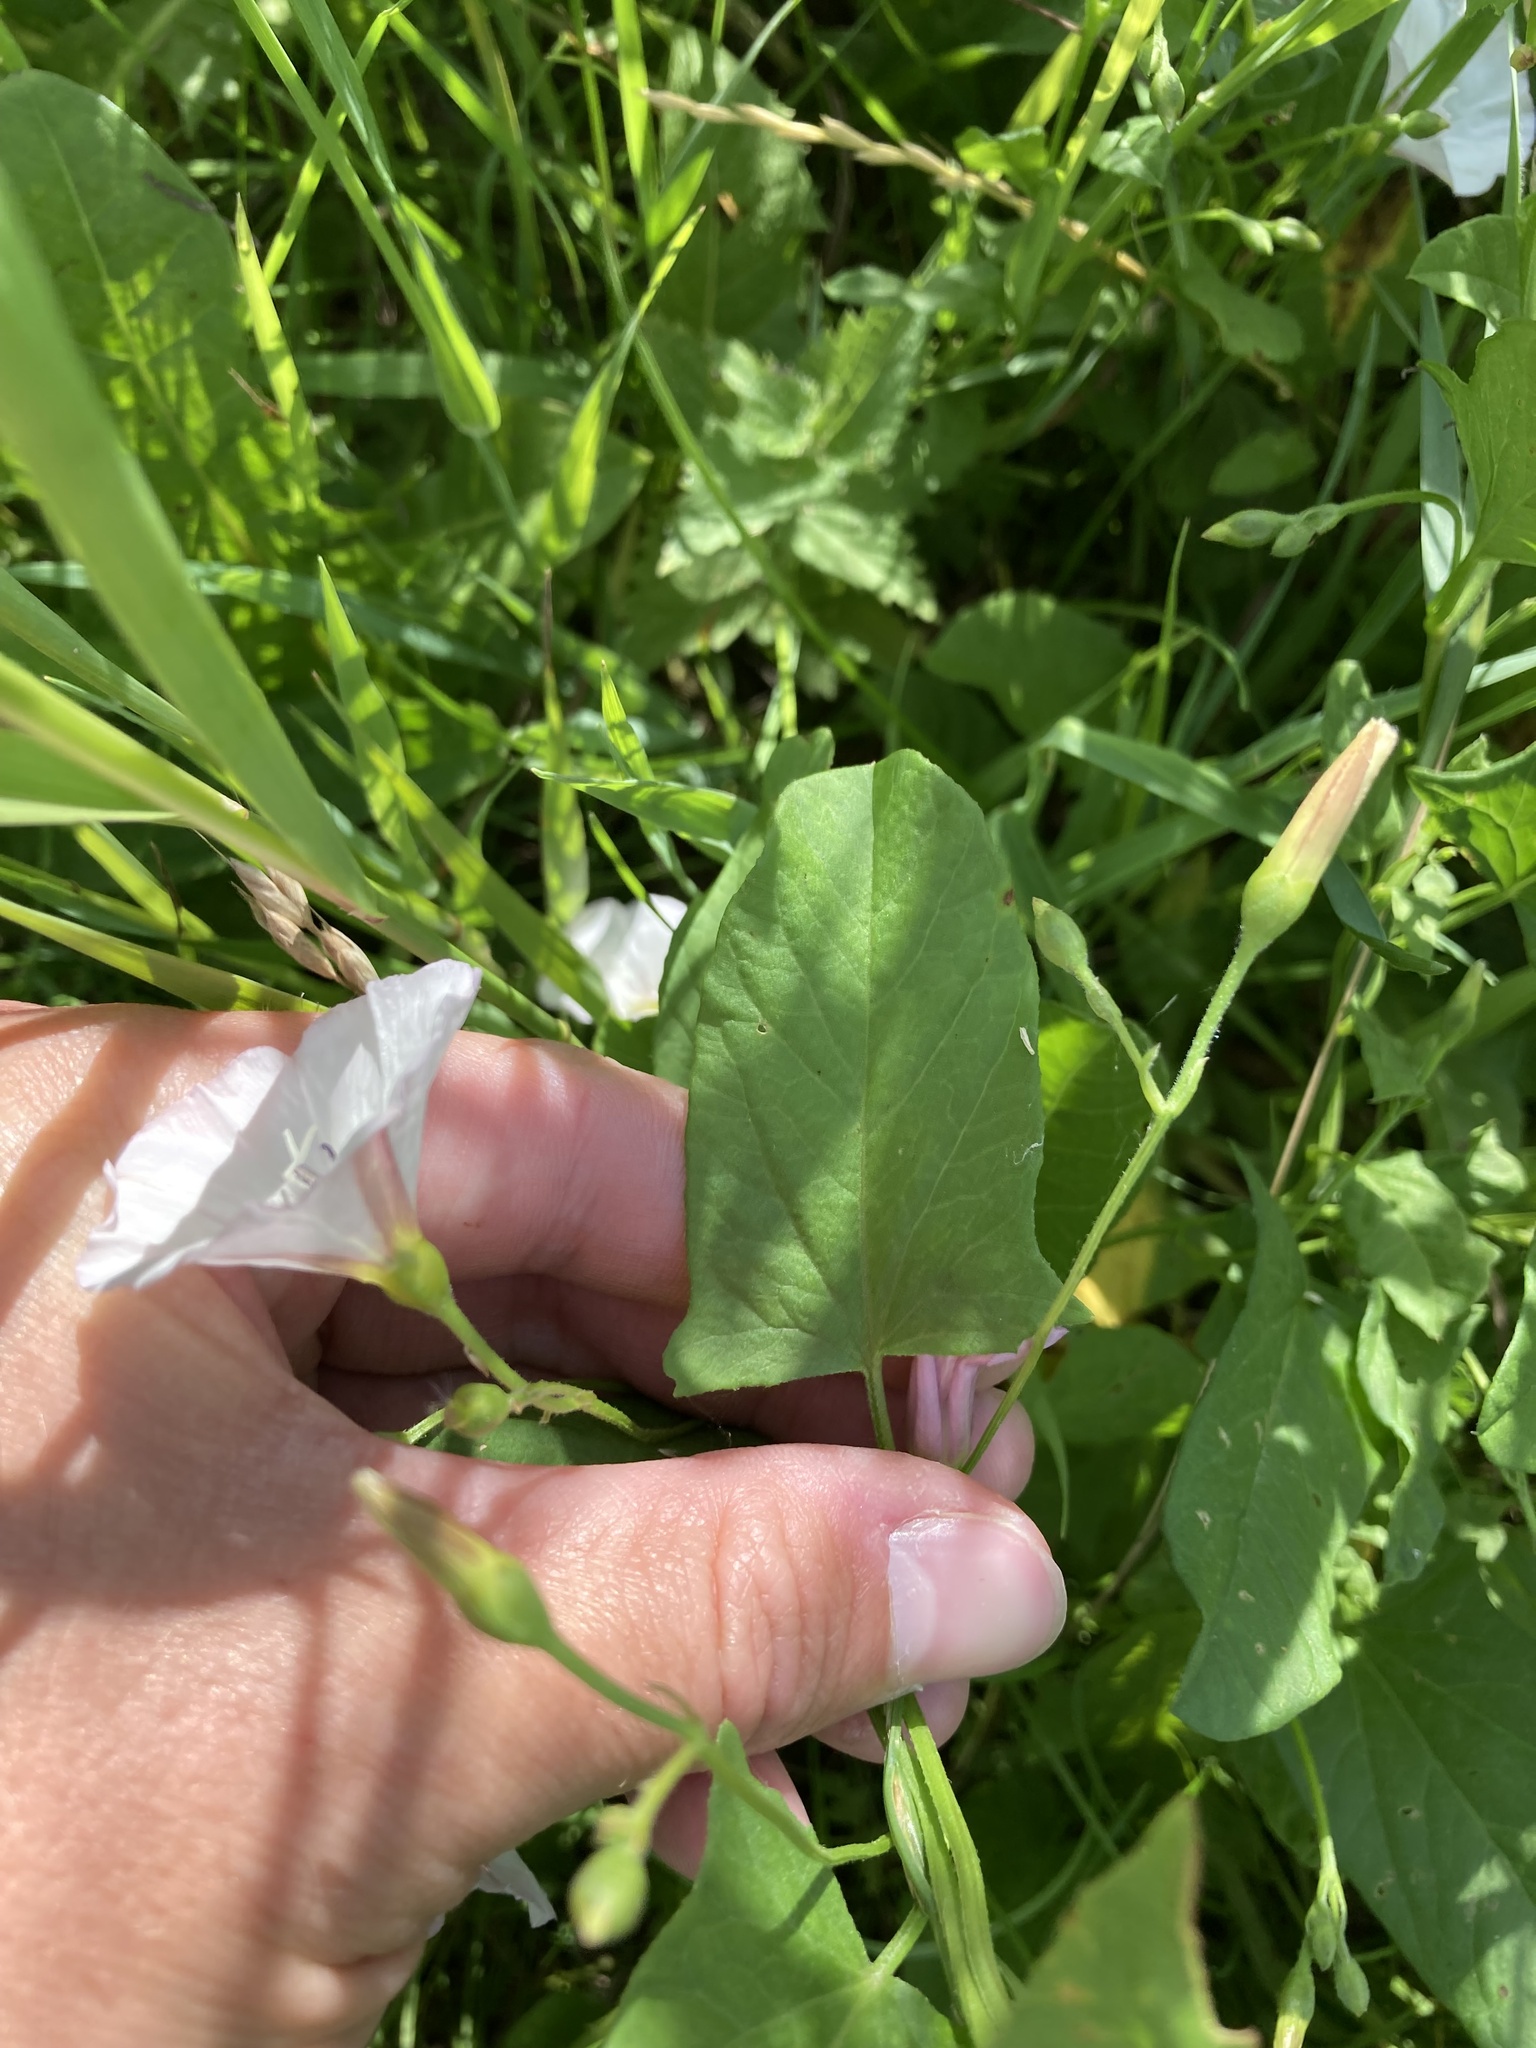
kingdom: Plantae
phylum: Tracheophyta
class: Magnoliopsida
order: Solanales
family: Convolvulaceae
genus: Convolvulus
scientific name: Convolvulus arvensis
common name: Field bindweed
